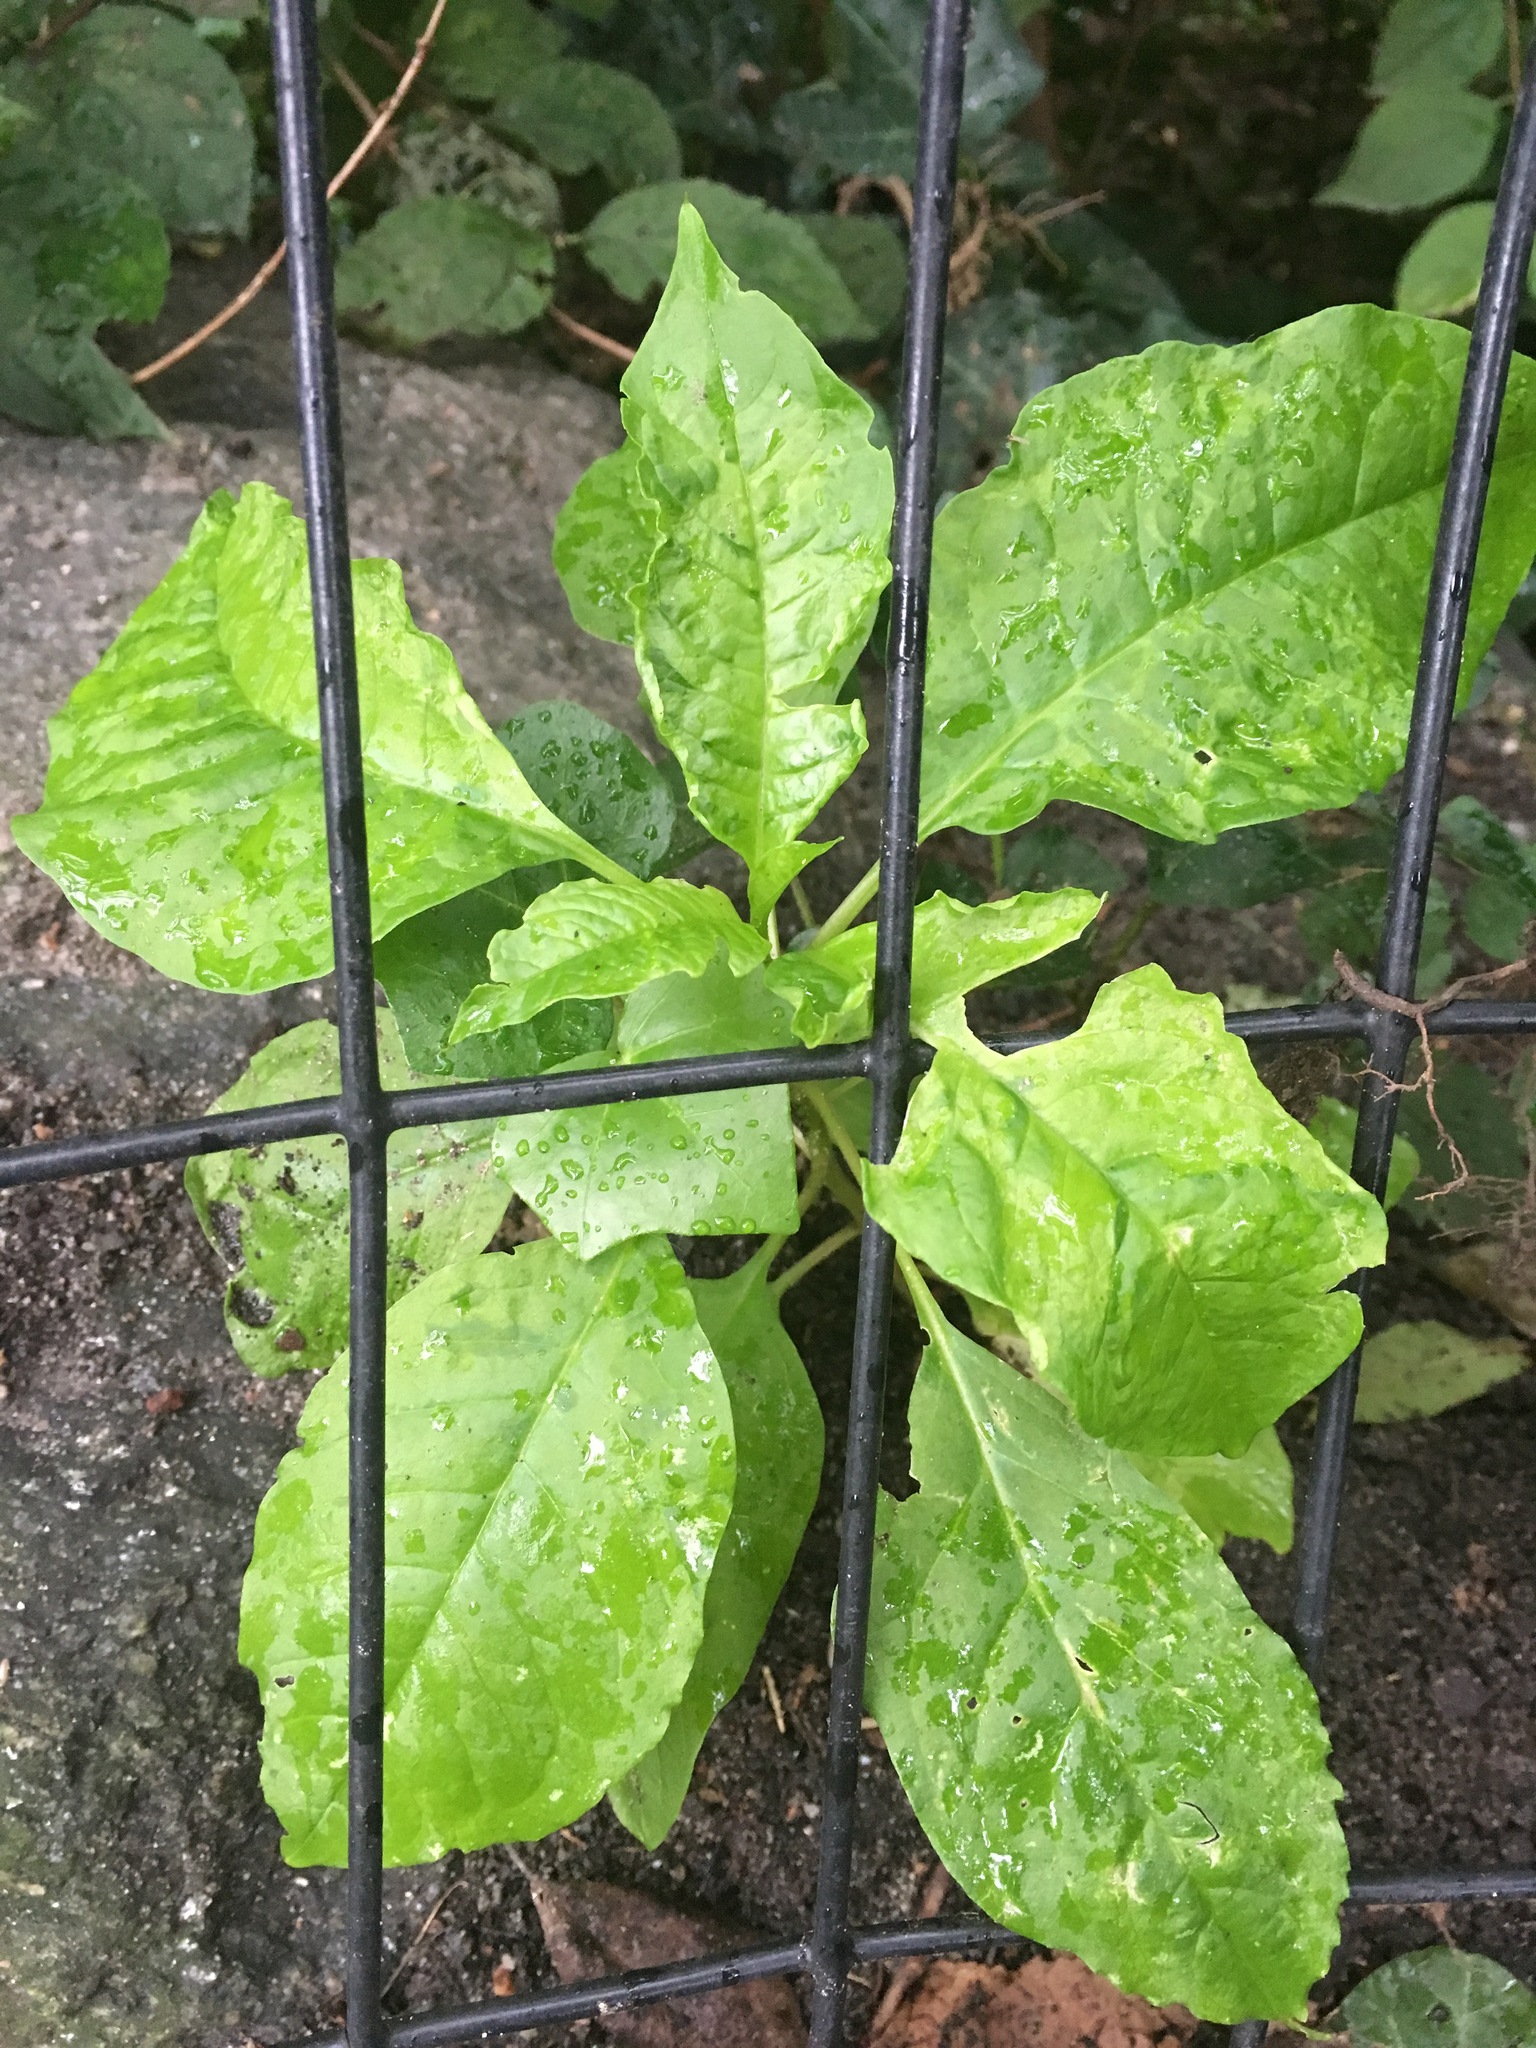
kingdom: Plantae
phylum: Tracheophyta
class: Magnoliopsida
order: Caryophyllales
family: Phytolaccaceae
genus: Phytolacca
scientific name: Phytolacca americana
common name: American pokeweed
